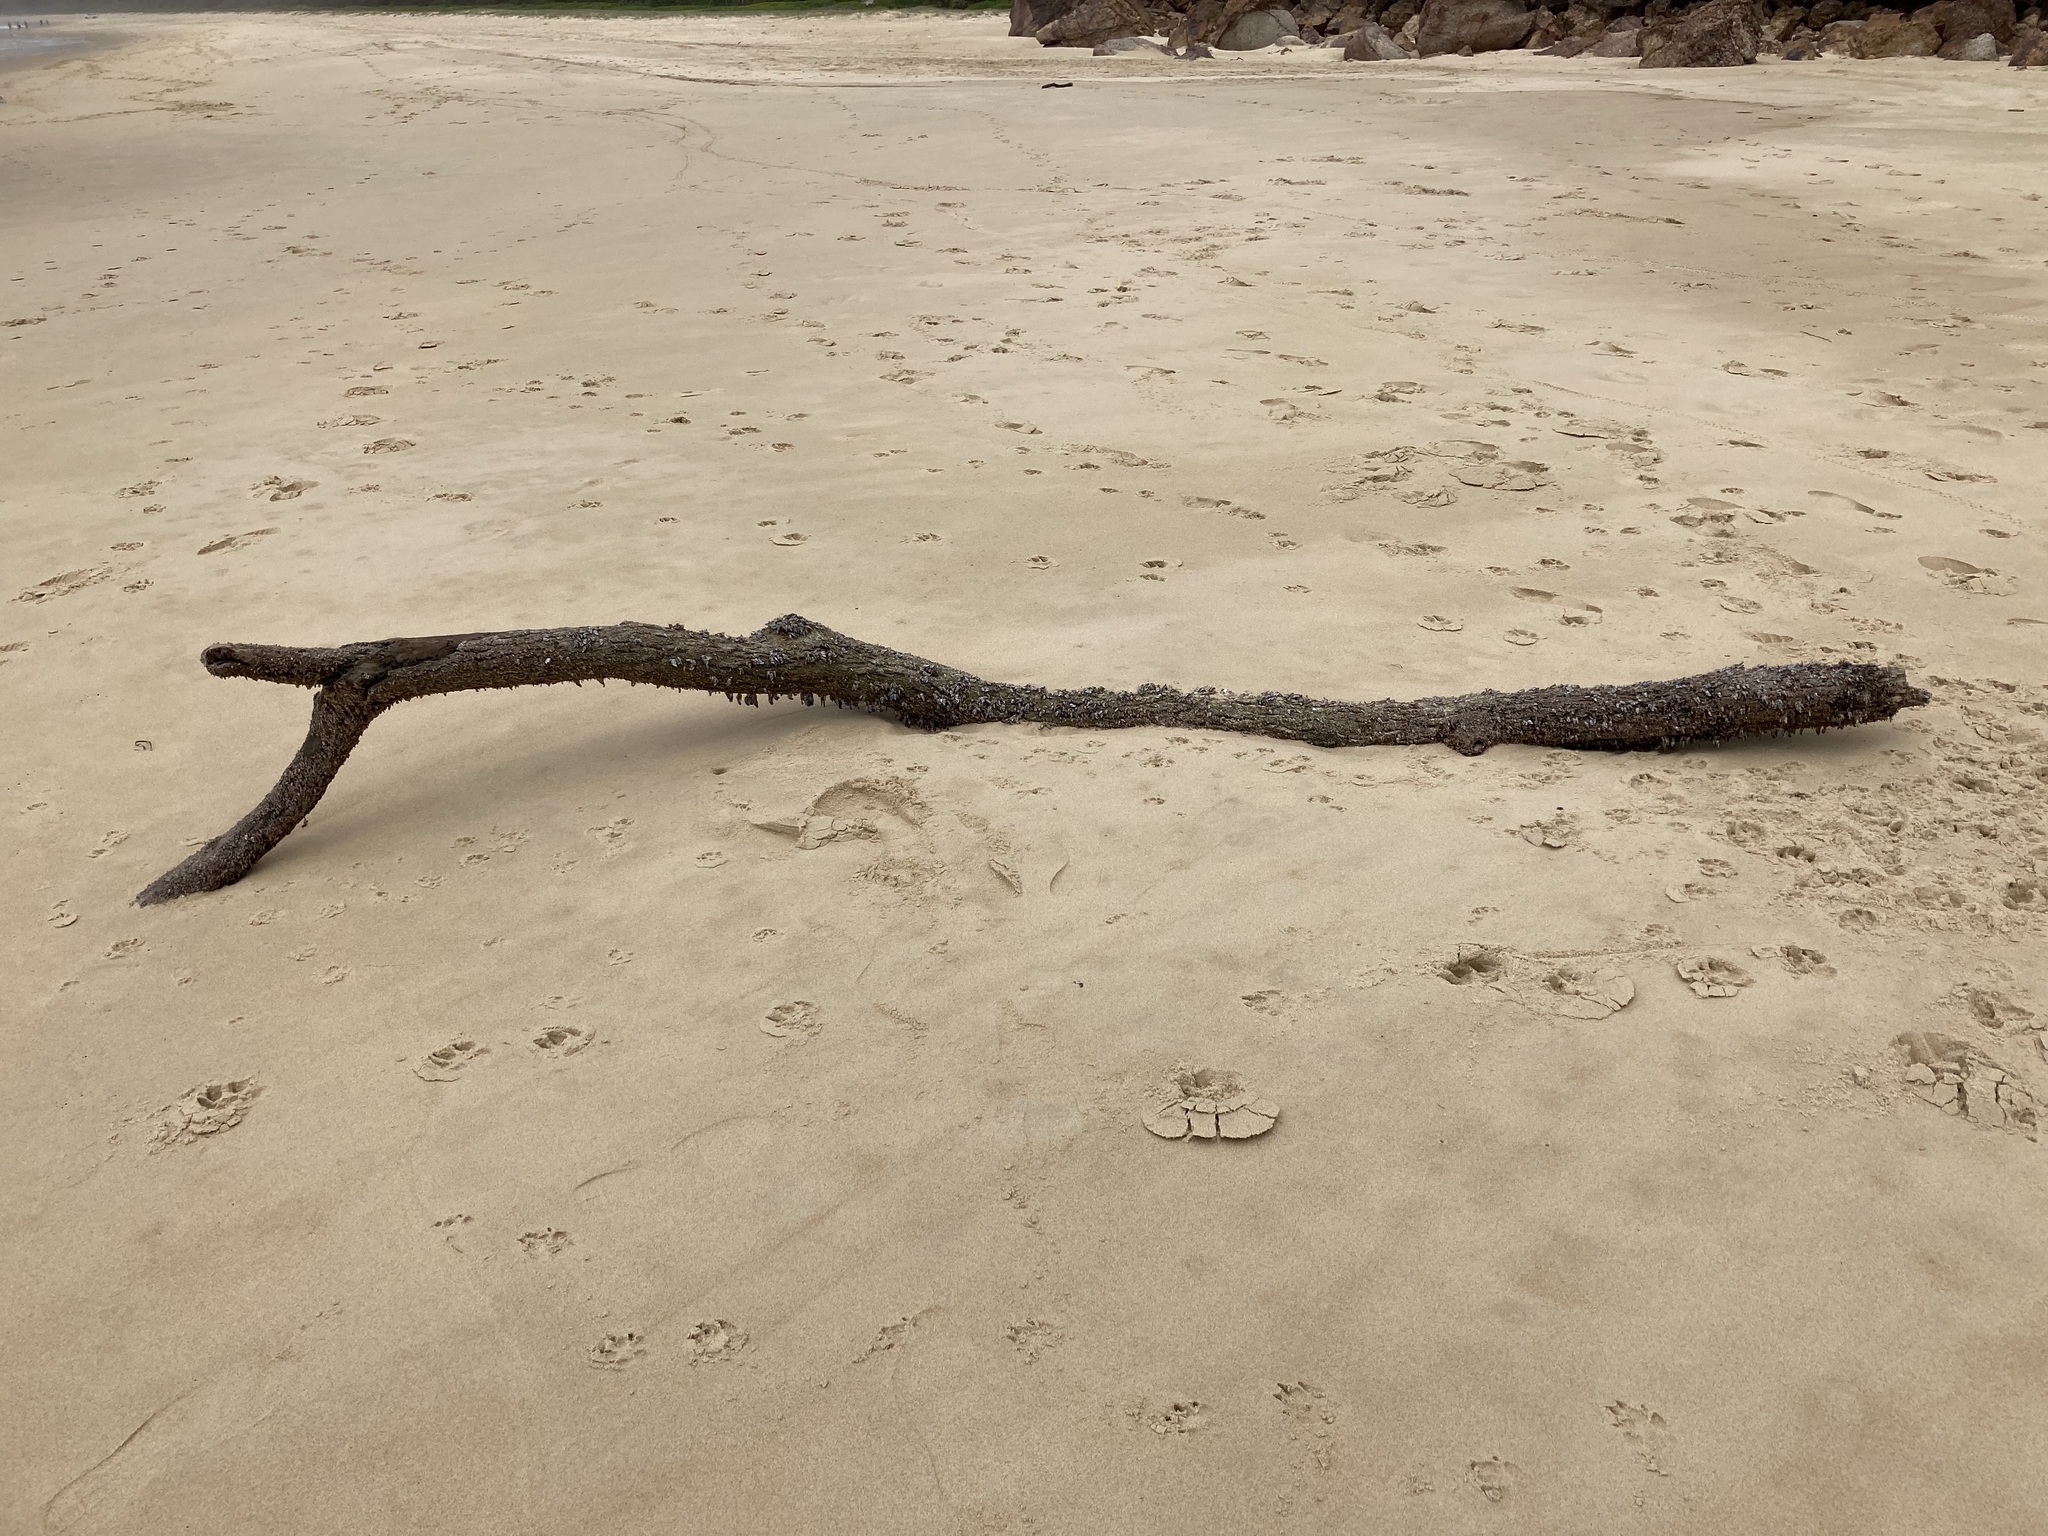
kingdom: Animalia
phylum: Arthropoda
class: Maxillopoda
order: Pedunculata
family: Lepadidae
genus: Lepas
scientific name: Lepas anserifera
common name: Goose barnacle
